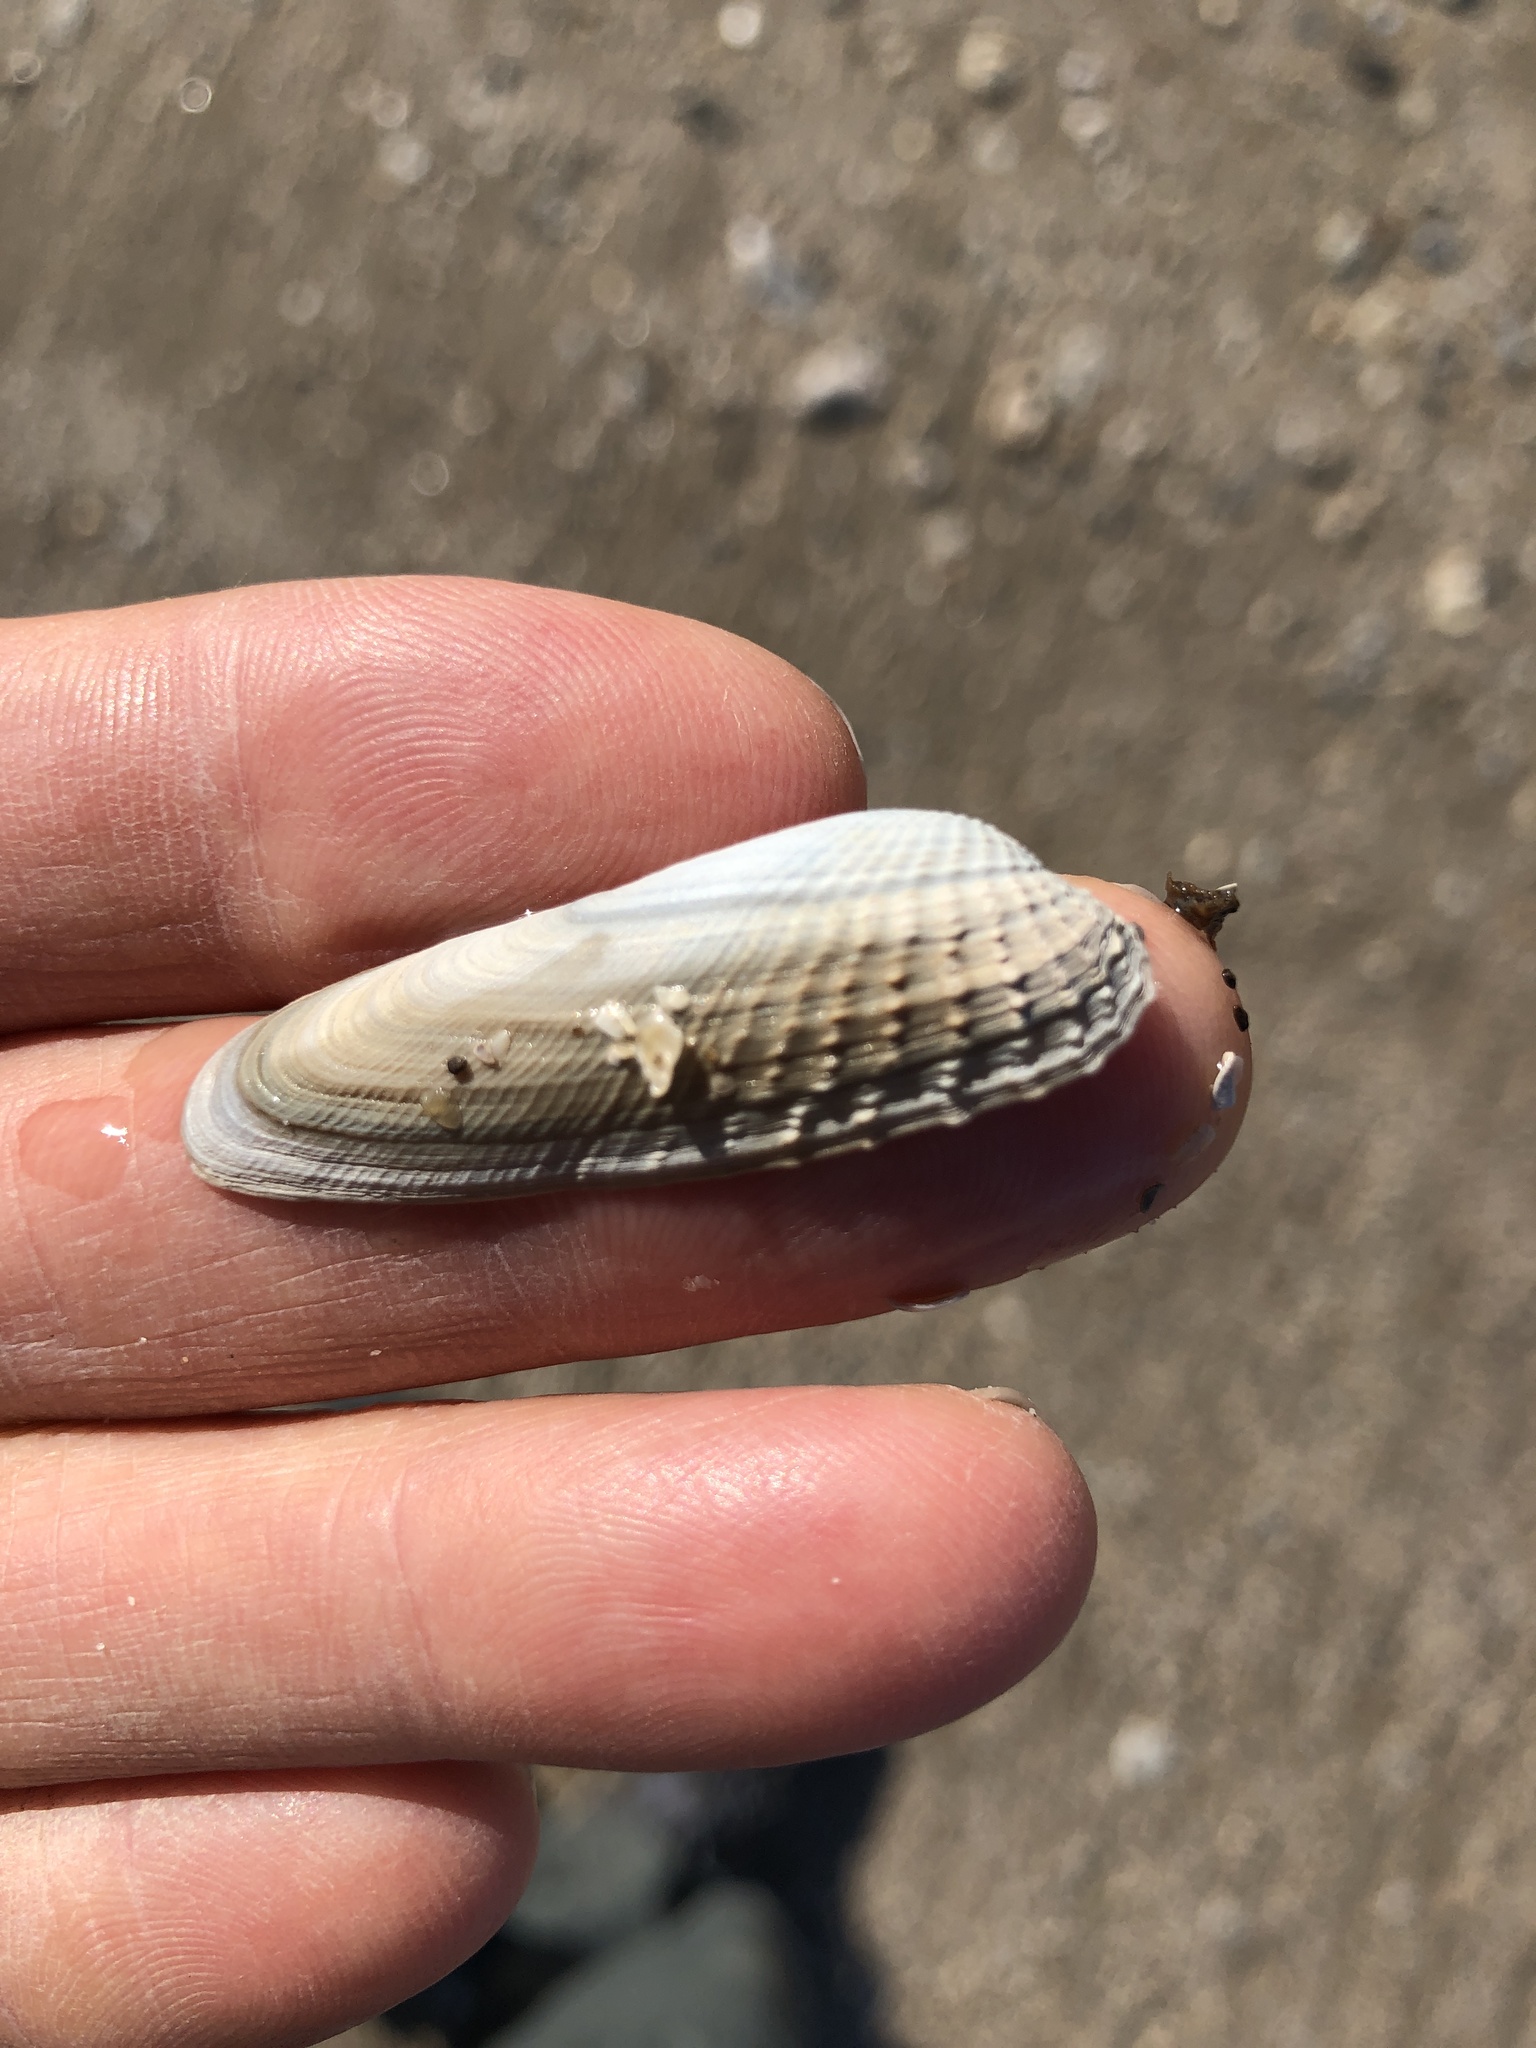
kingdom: Animalia
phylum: Mollusca
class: Bivalvia
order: Venerida
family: Veneridae
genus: Petricolaria
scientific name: Petricolaria pholadiformis
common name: American piddock
